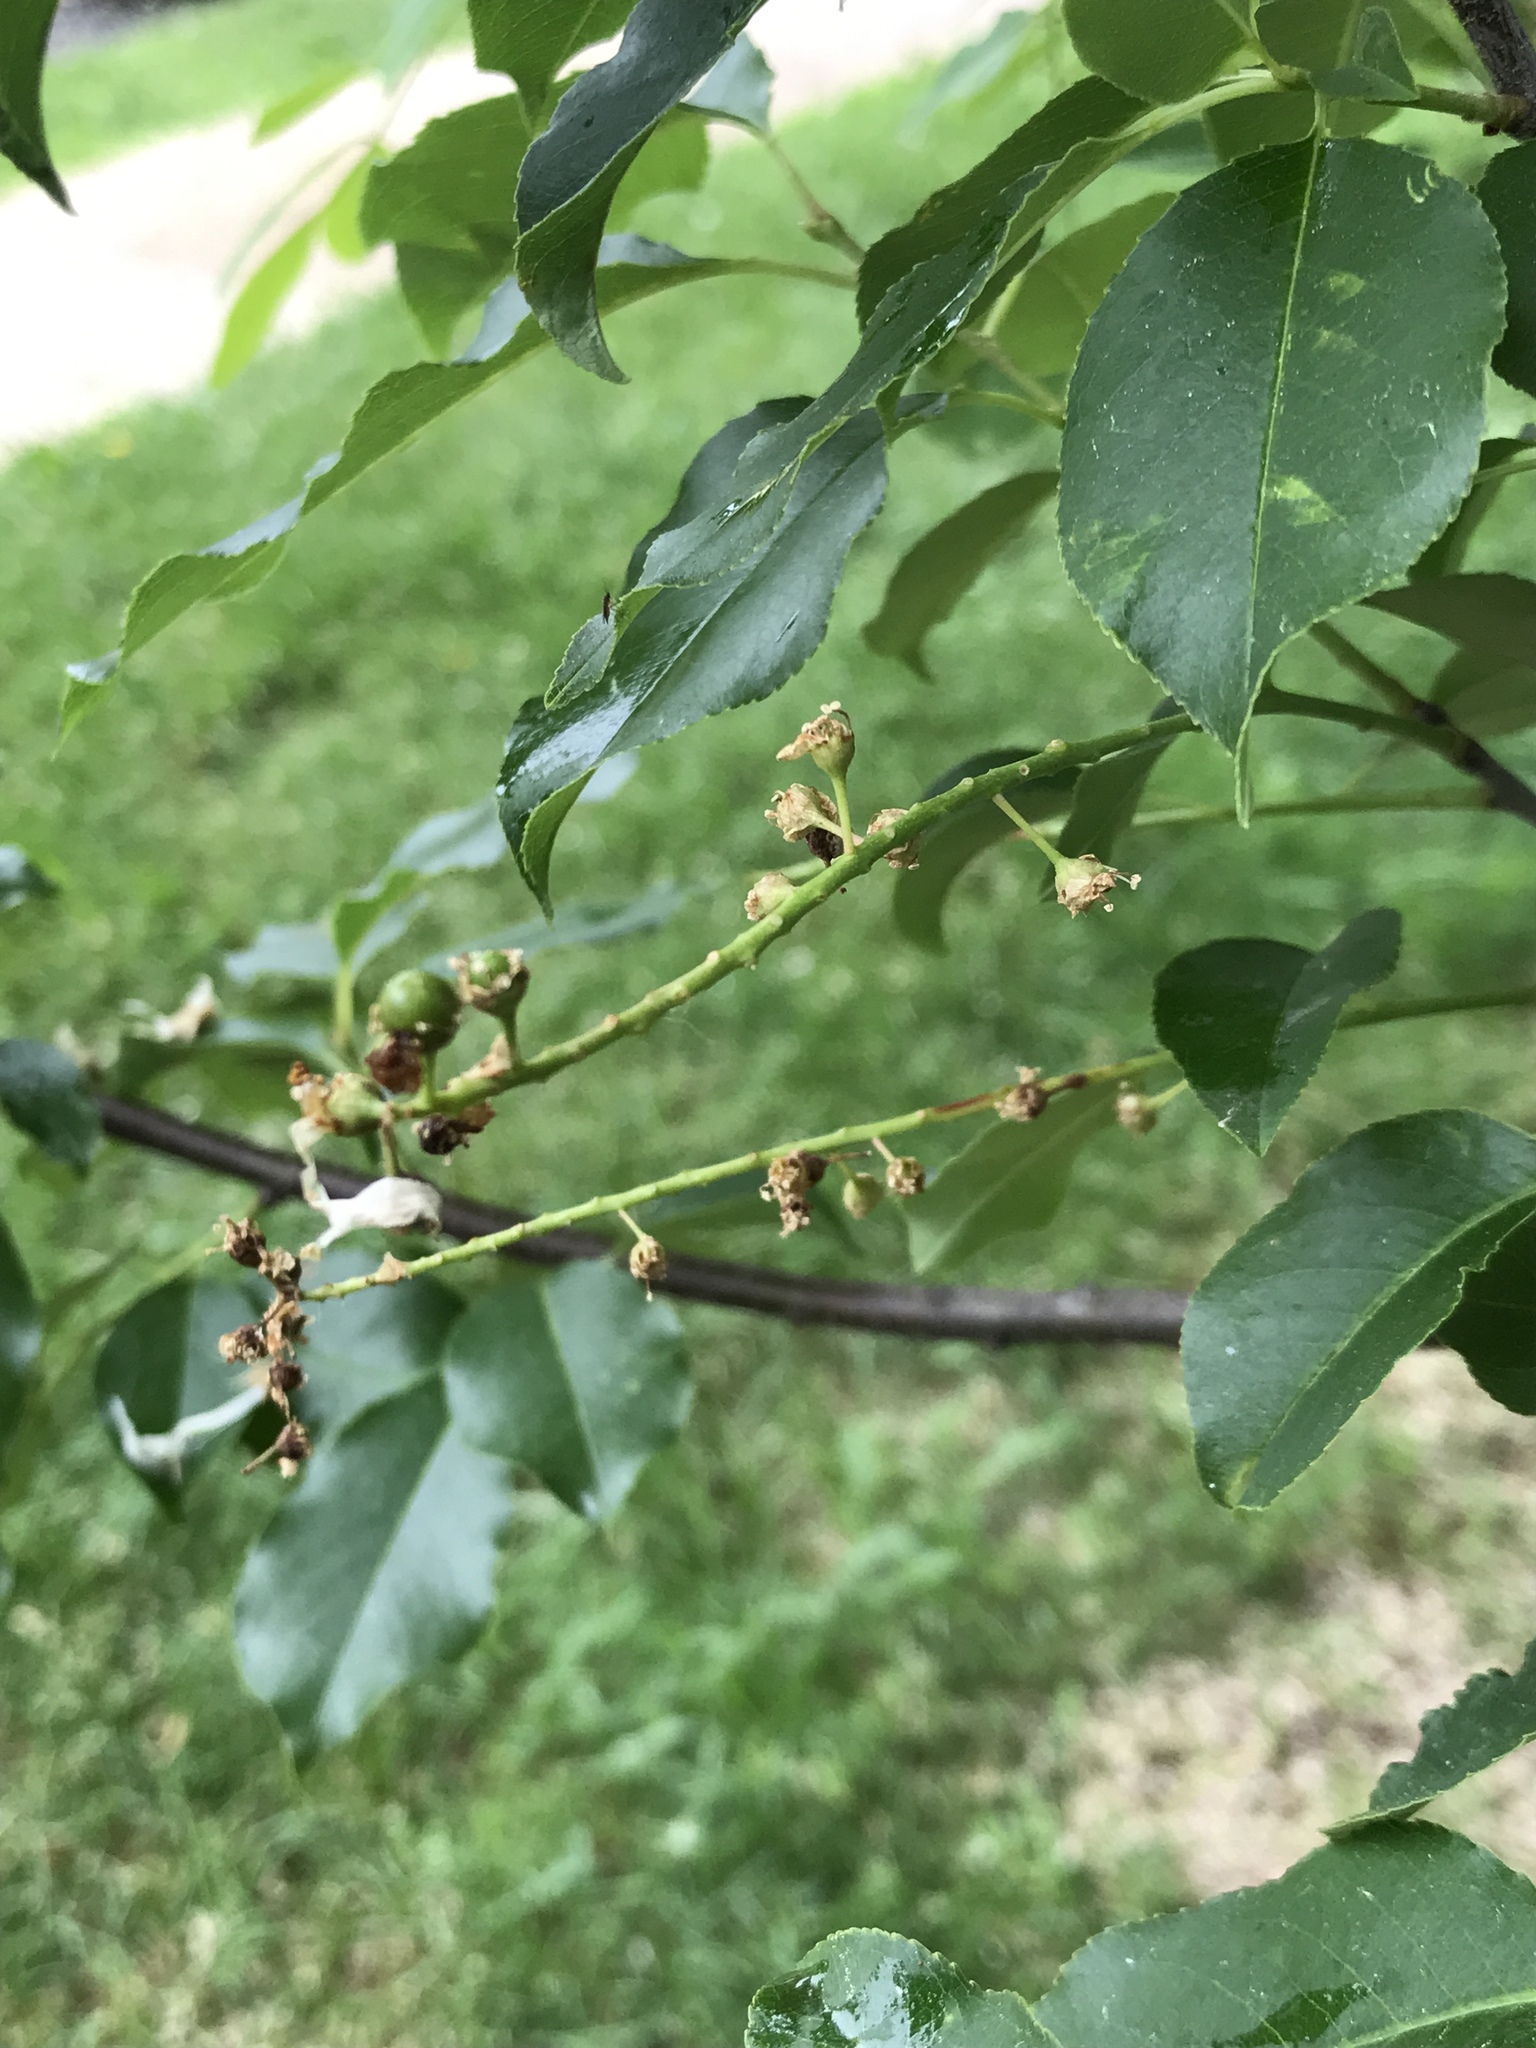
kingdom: Plantae
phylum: Tracheophyta
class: Magnoliopsida
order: Rosales
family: Rosaceae
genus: Prunus
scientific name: Prunus serotina
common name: Black cherry
